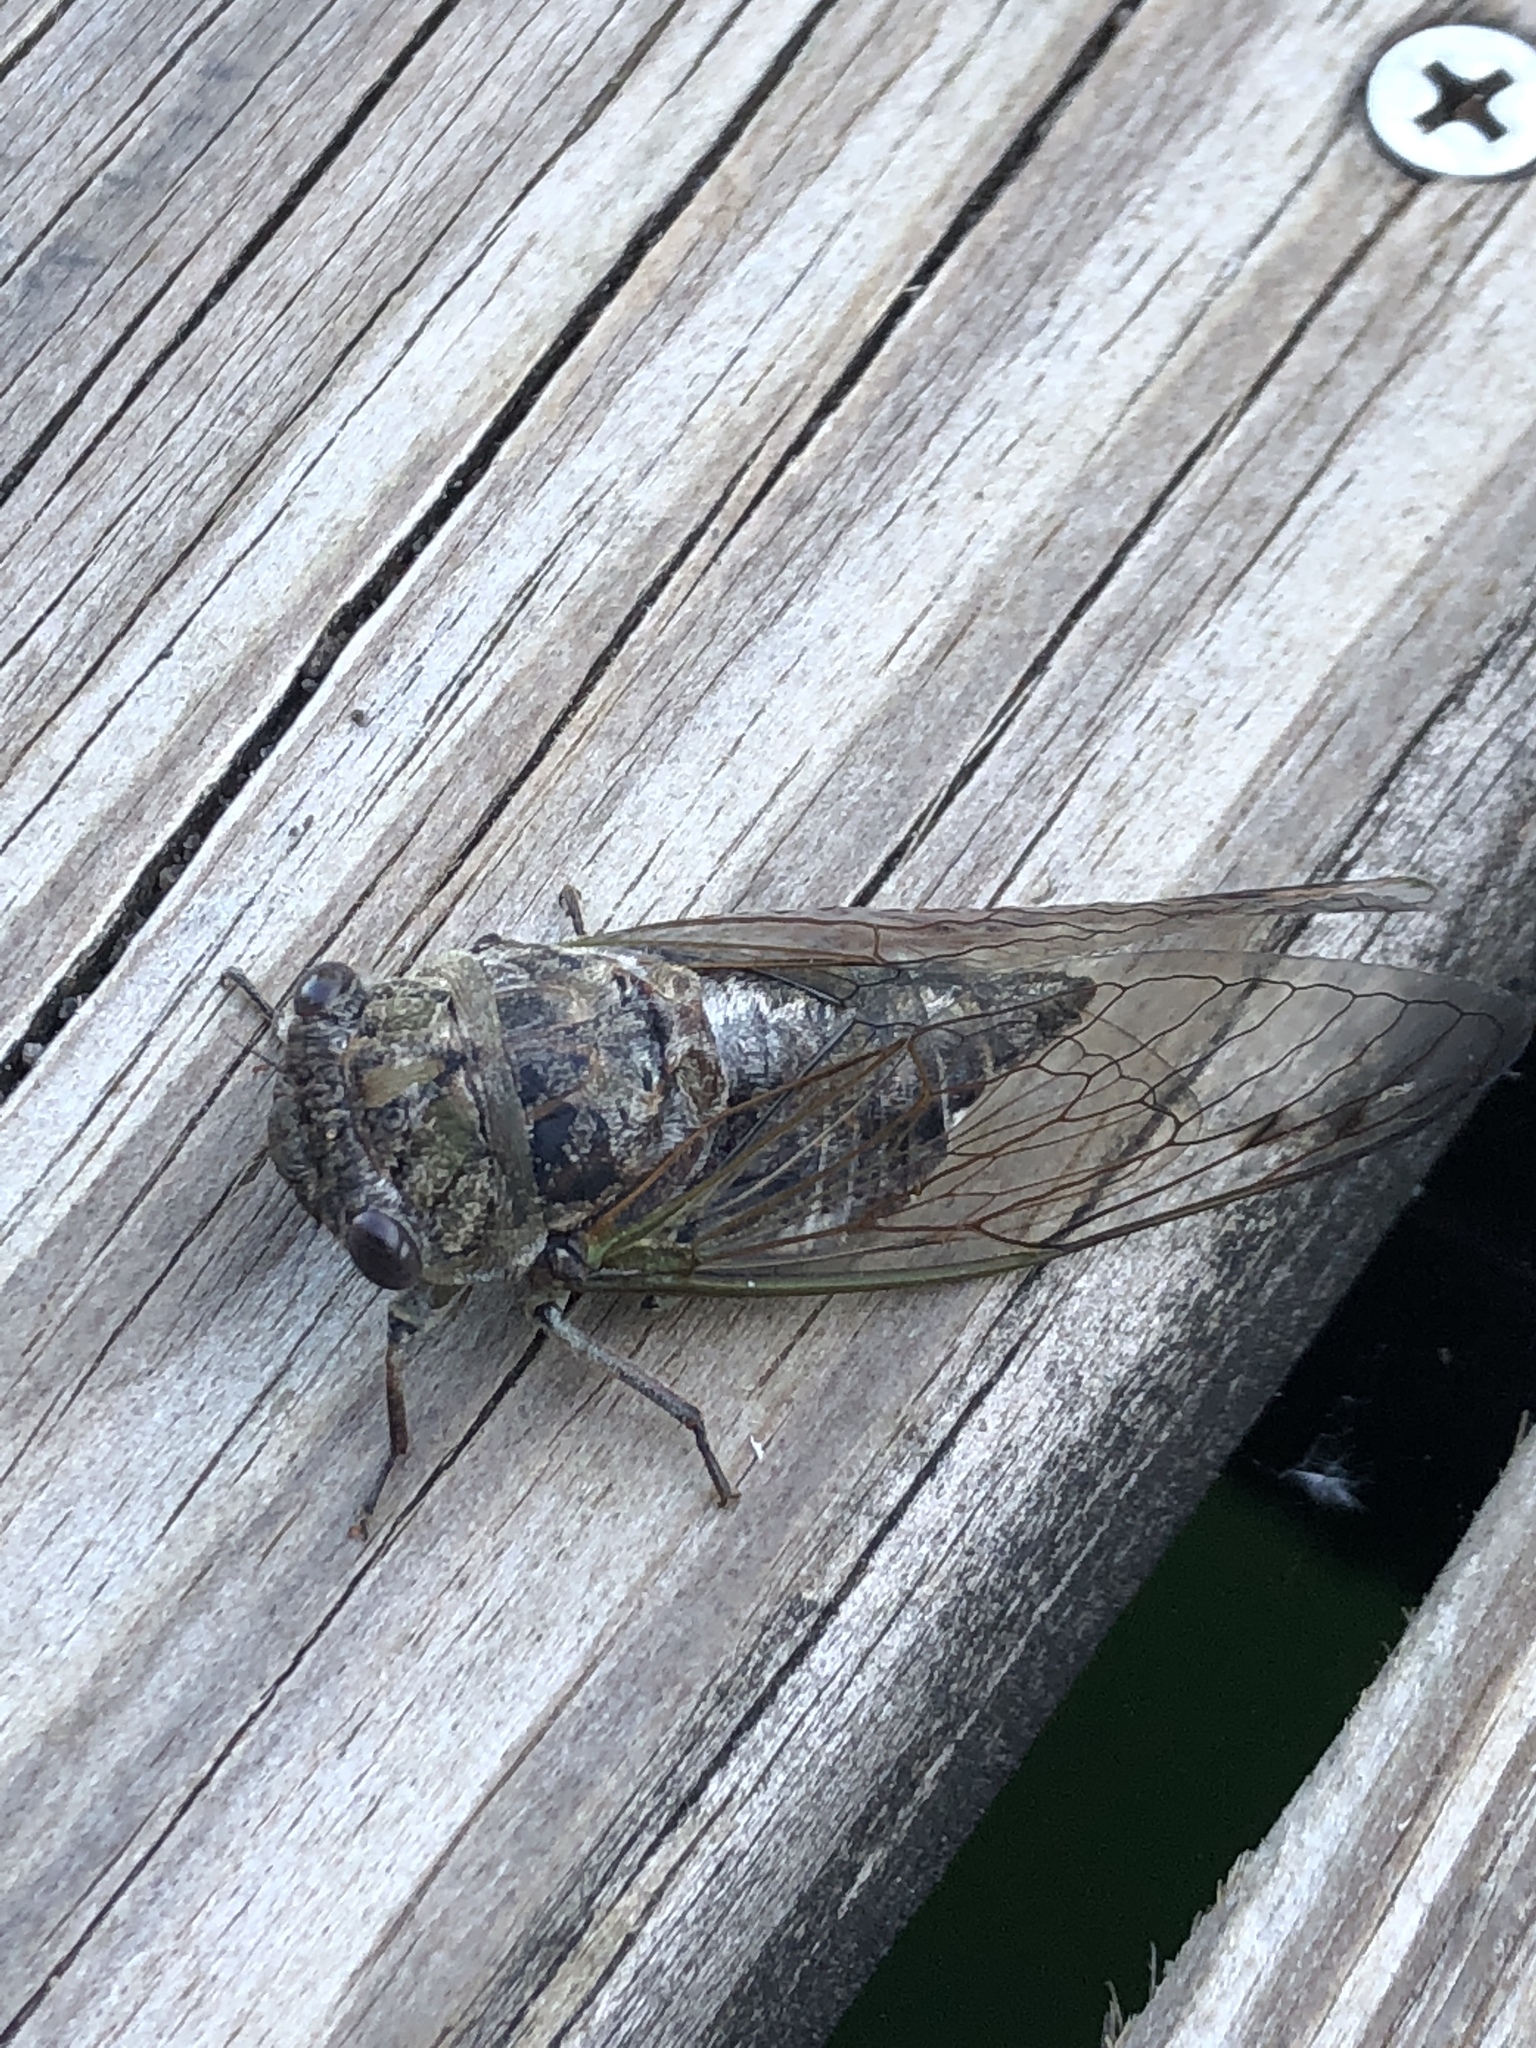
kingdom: Animalia
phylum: Arthropoda
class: Insecta
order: Hemiptera
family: Cicadidae
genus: Neotibicen
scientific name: Neotibicen canicularis
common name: God-day cicada
